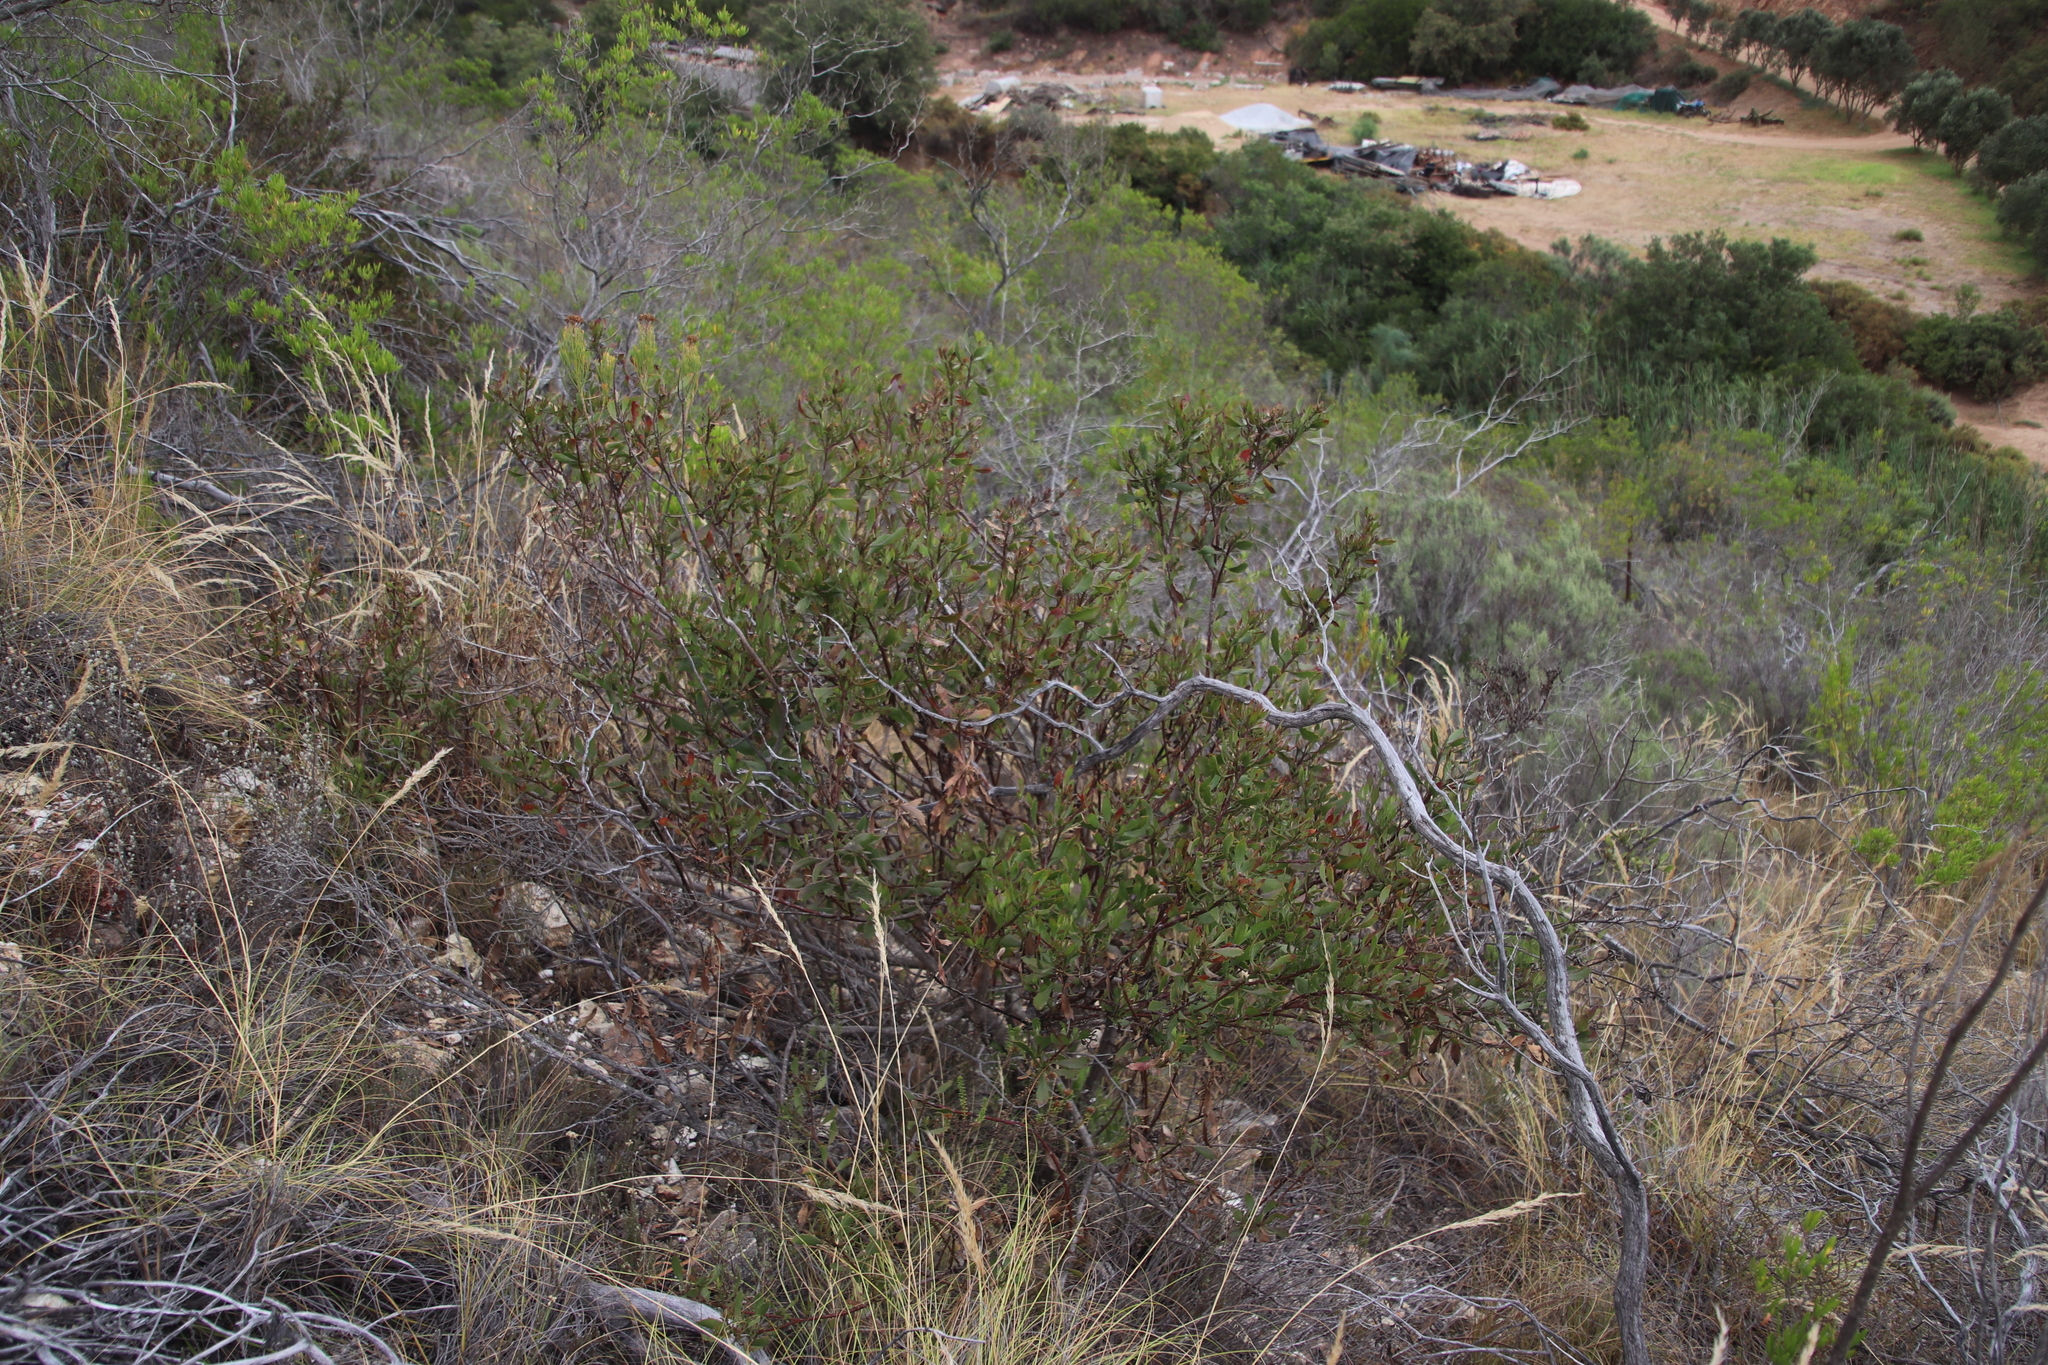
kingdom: Plantae
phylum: Tracheophyta
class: Magnoliopsida
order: Asterales
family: Asteraceae
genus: Osteospermum
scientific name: Osteospermum moniliferum
